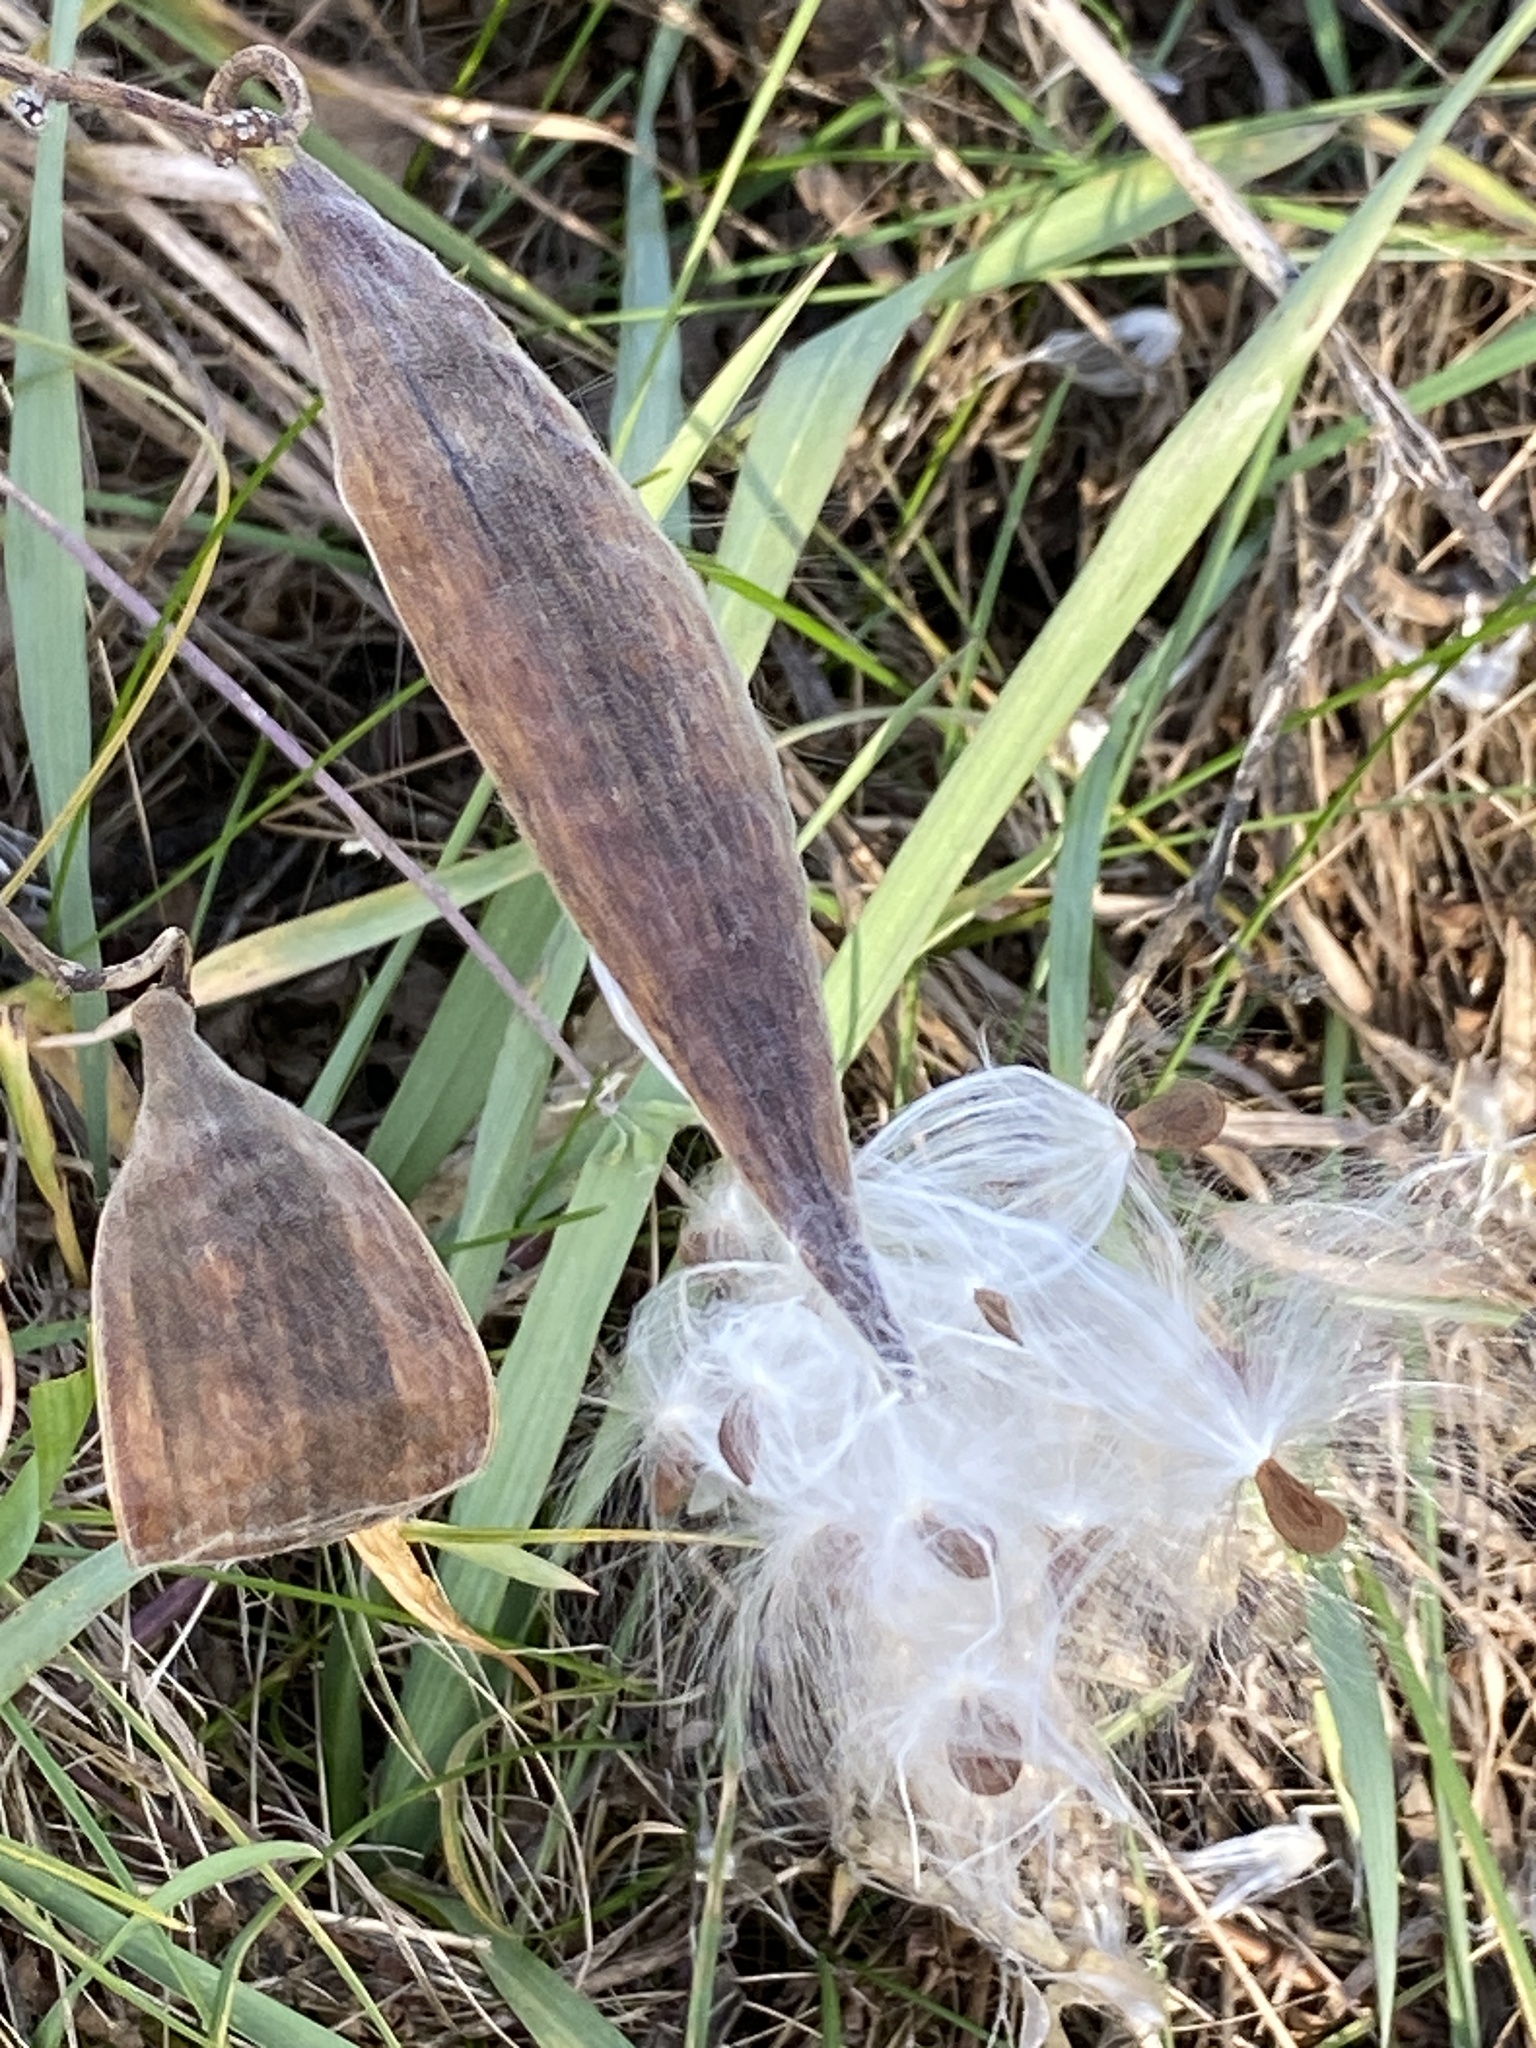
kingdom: Plantae
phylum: Tracheophyta
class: Magnoliopsida
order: Gentianales
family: Apocynaceae
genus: Asclepias
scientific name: Asclepias tuberosa
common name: Butterfly milkweed
